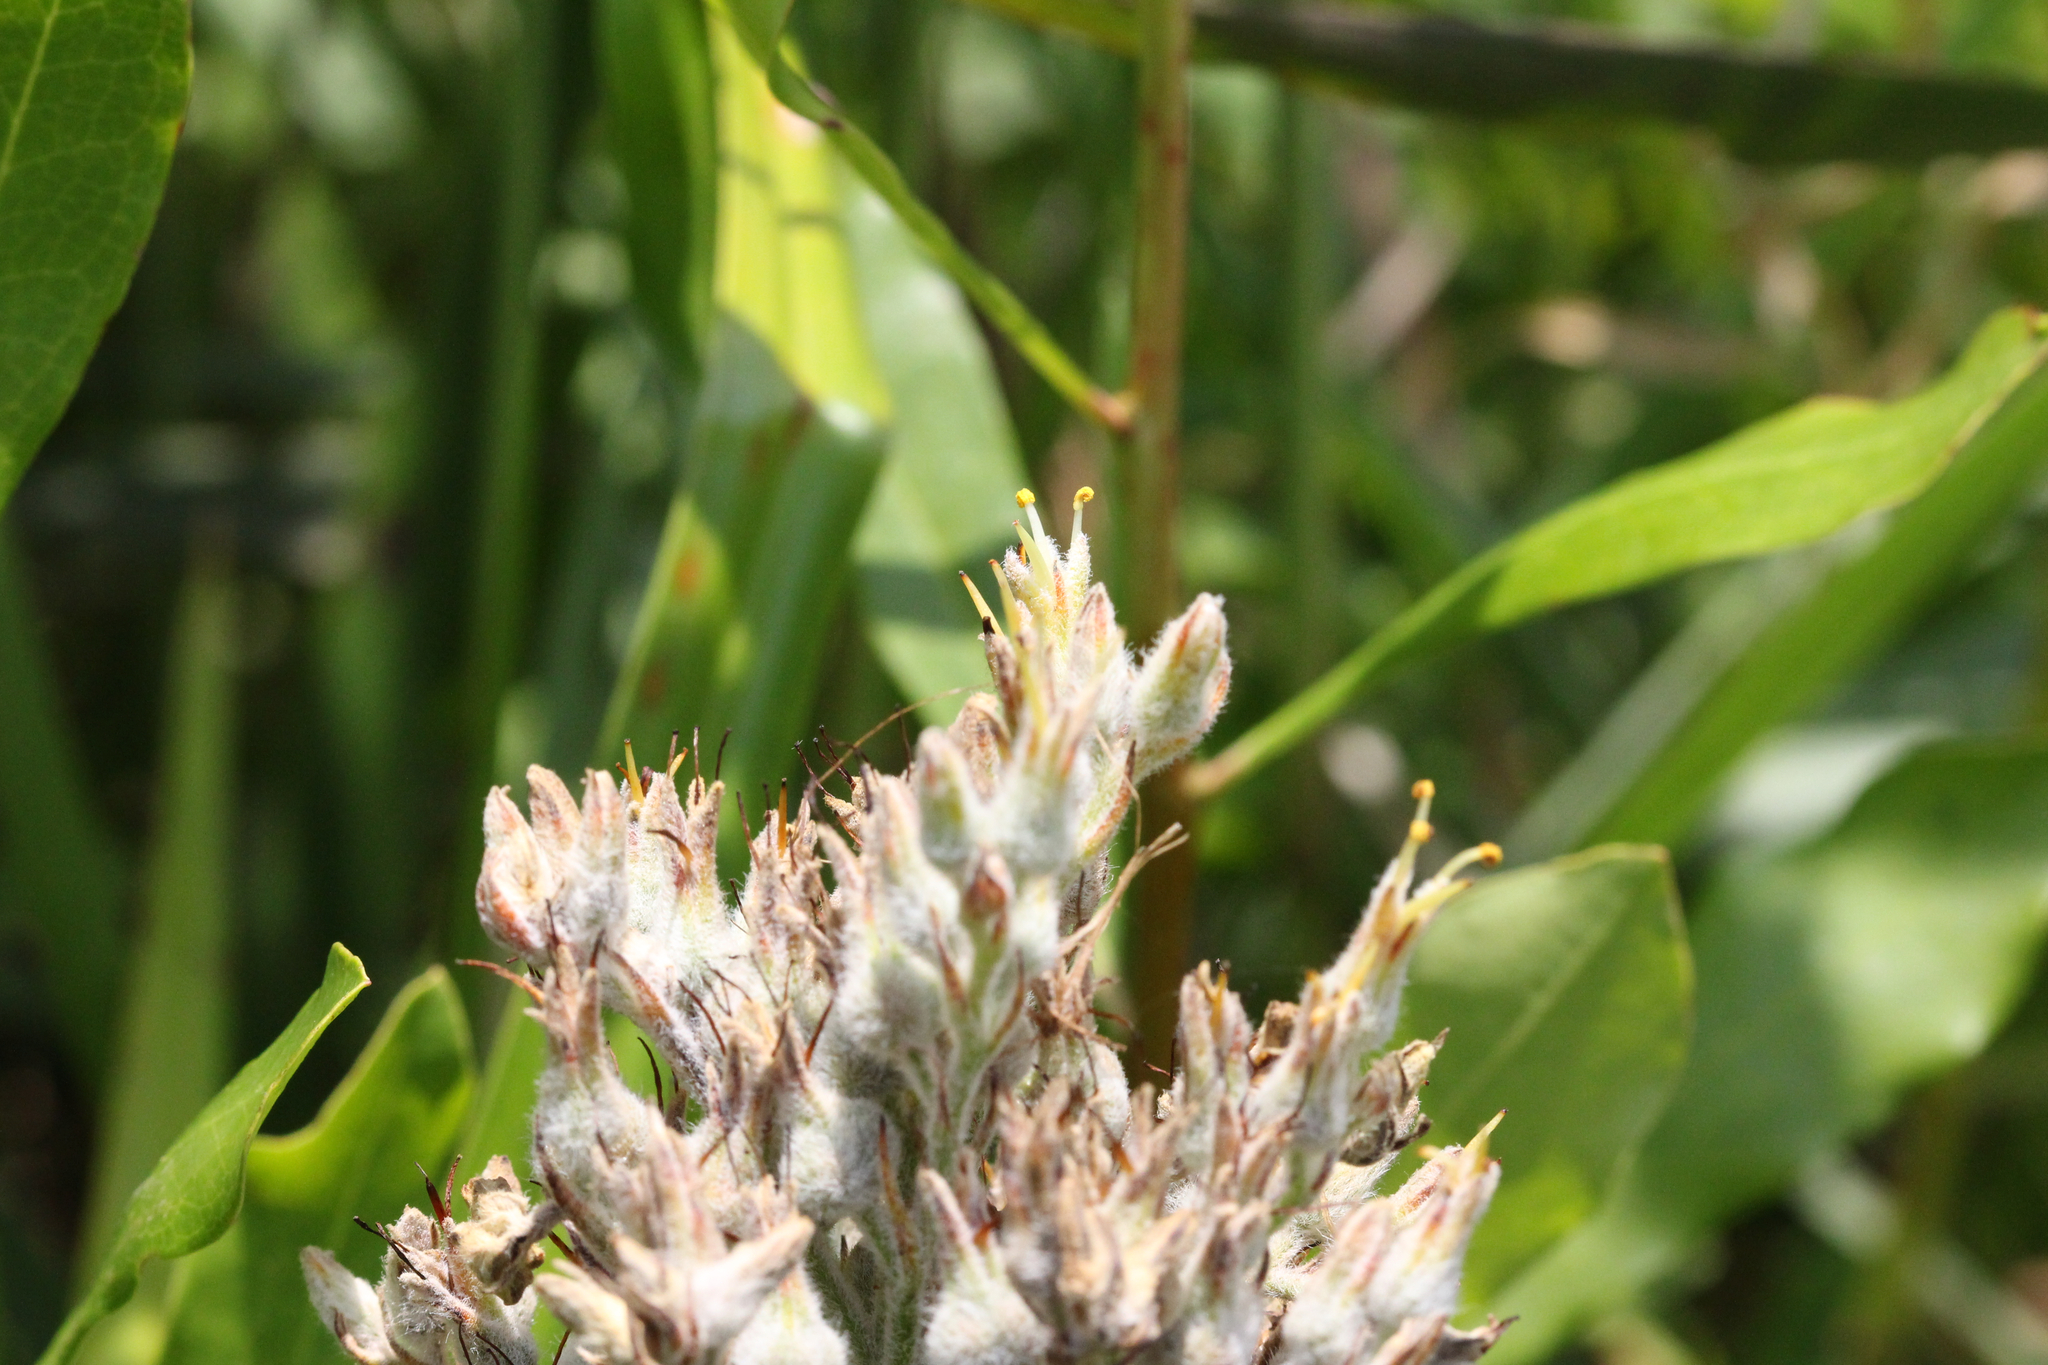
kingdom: Plantae
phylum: Tracheophyta
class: Liliopsida
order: Commelinales
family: Haemodoraceae
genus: Lachnanthes
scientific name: Lachnanthes caroliana
